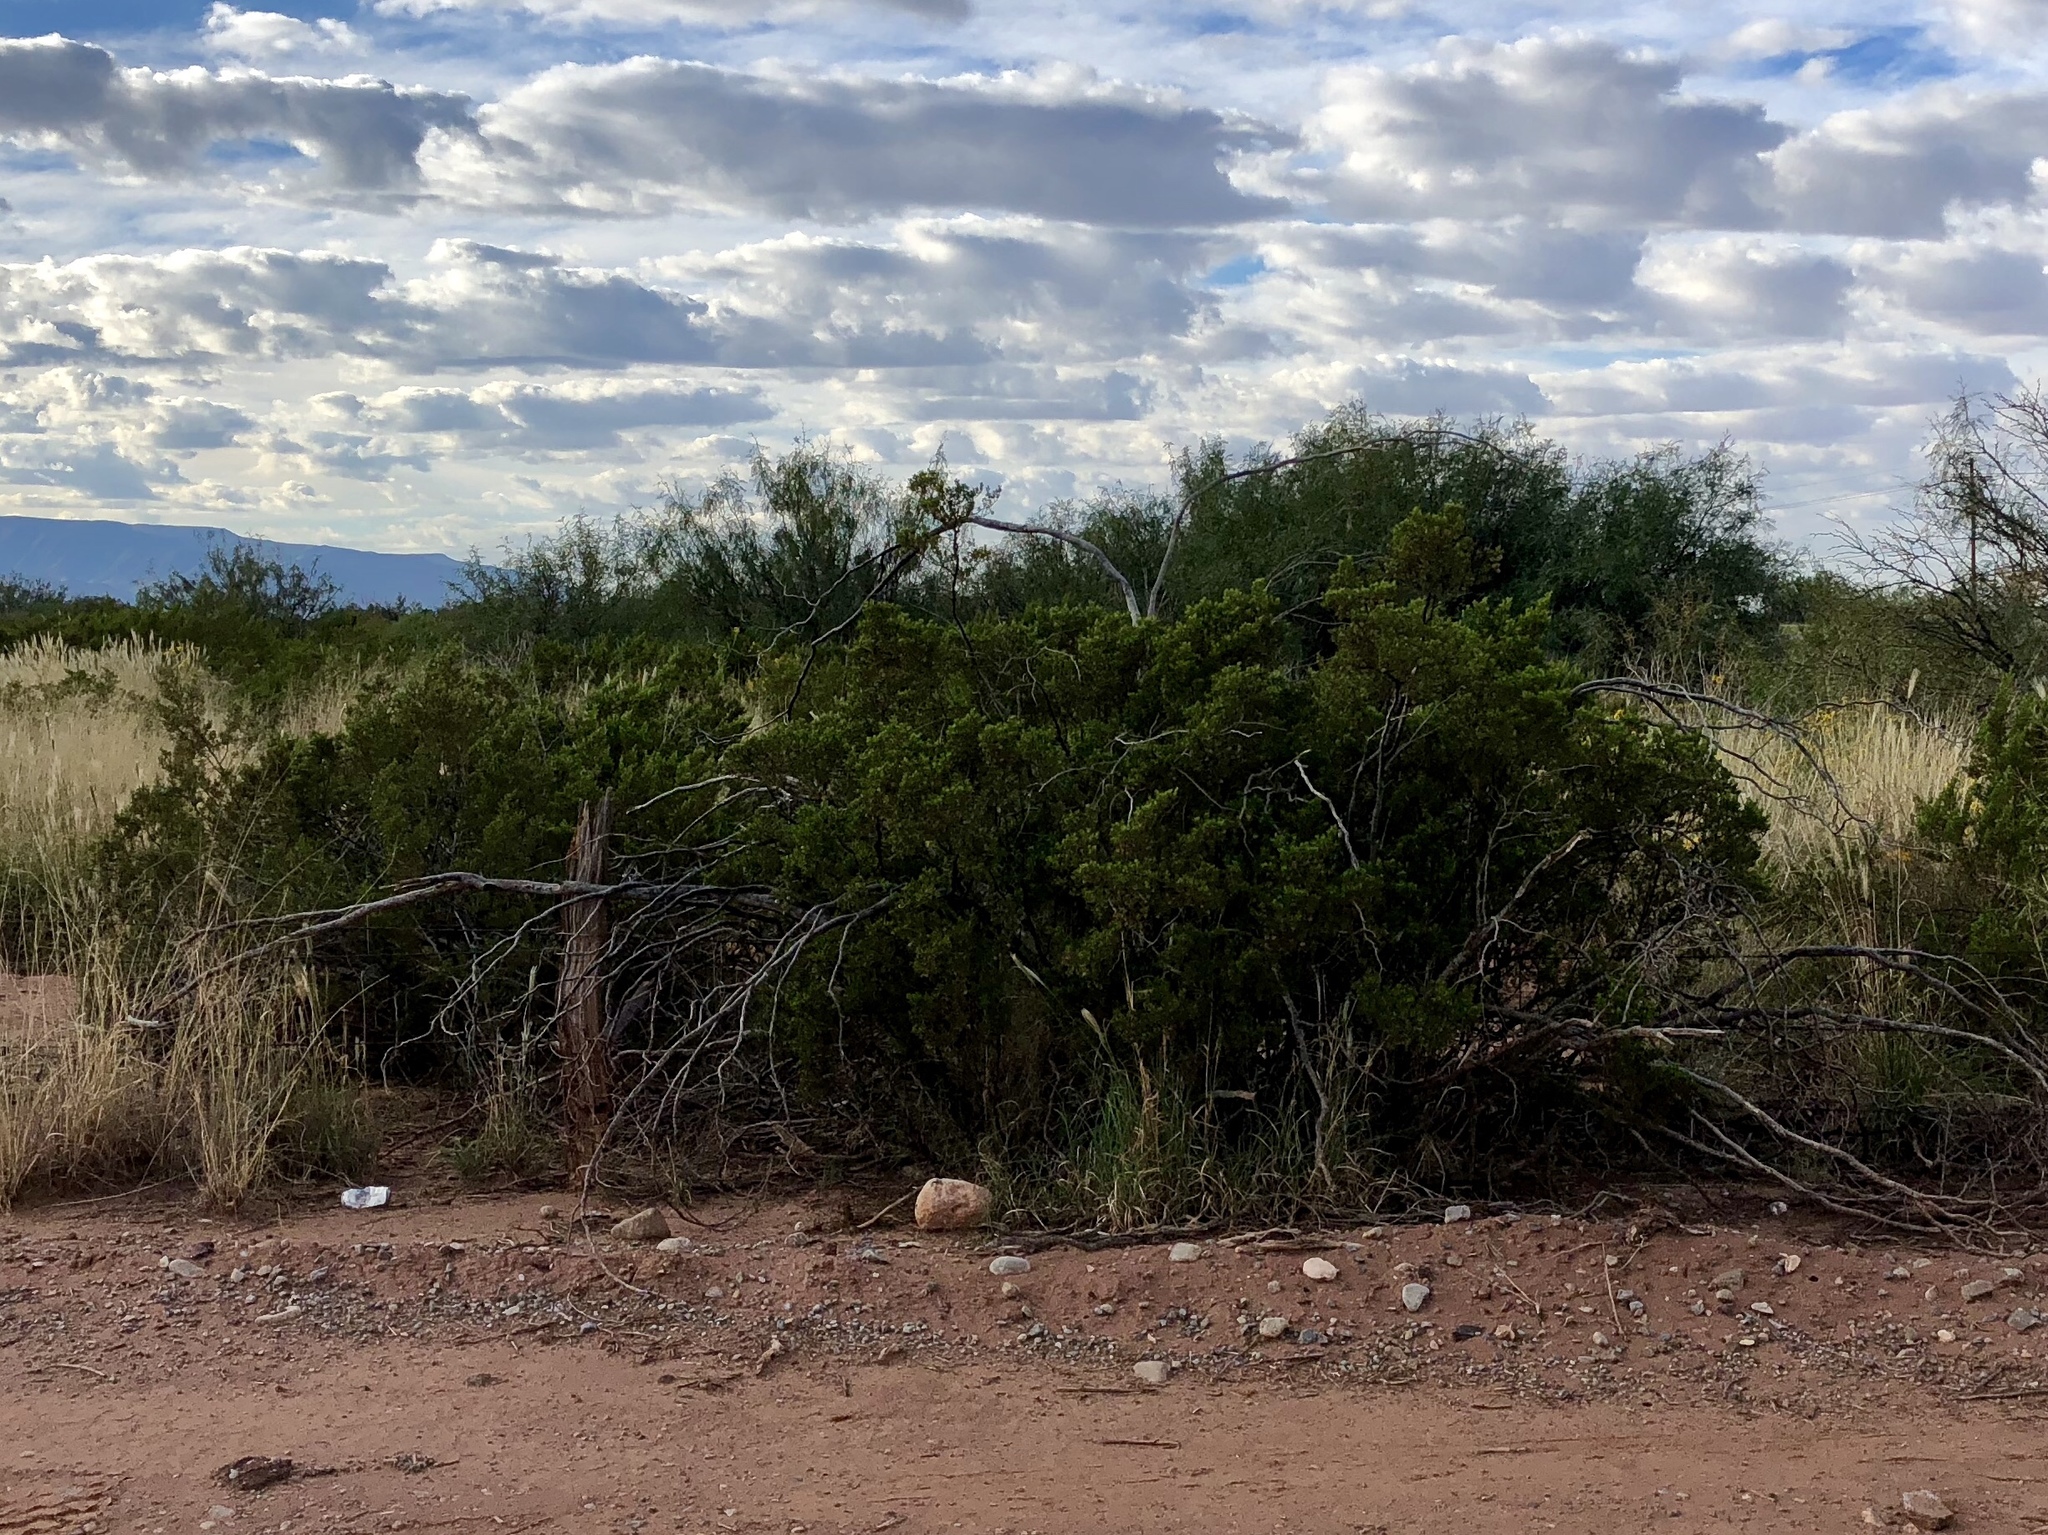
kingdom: Plantae
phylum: Tracheophyta
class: Magnoliopsida
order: Zygophyllales
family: Zygophyllaceae
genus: Larrea
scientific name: Larrea tridentata
